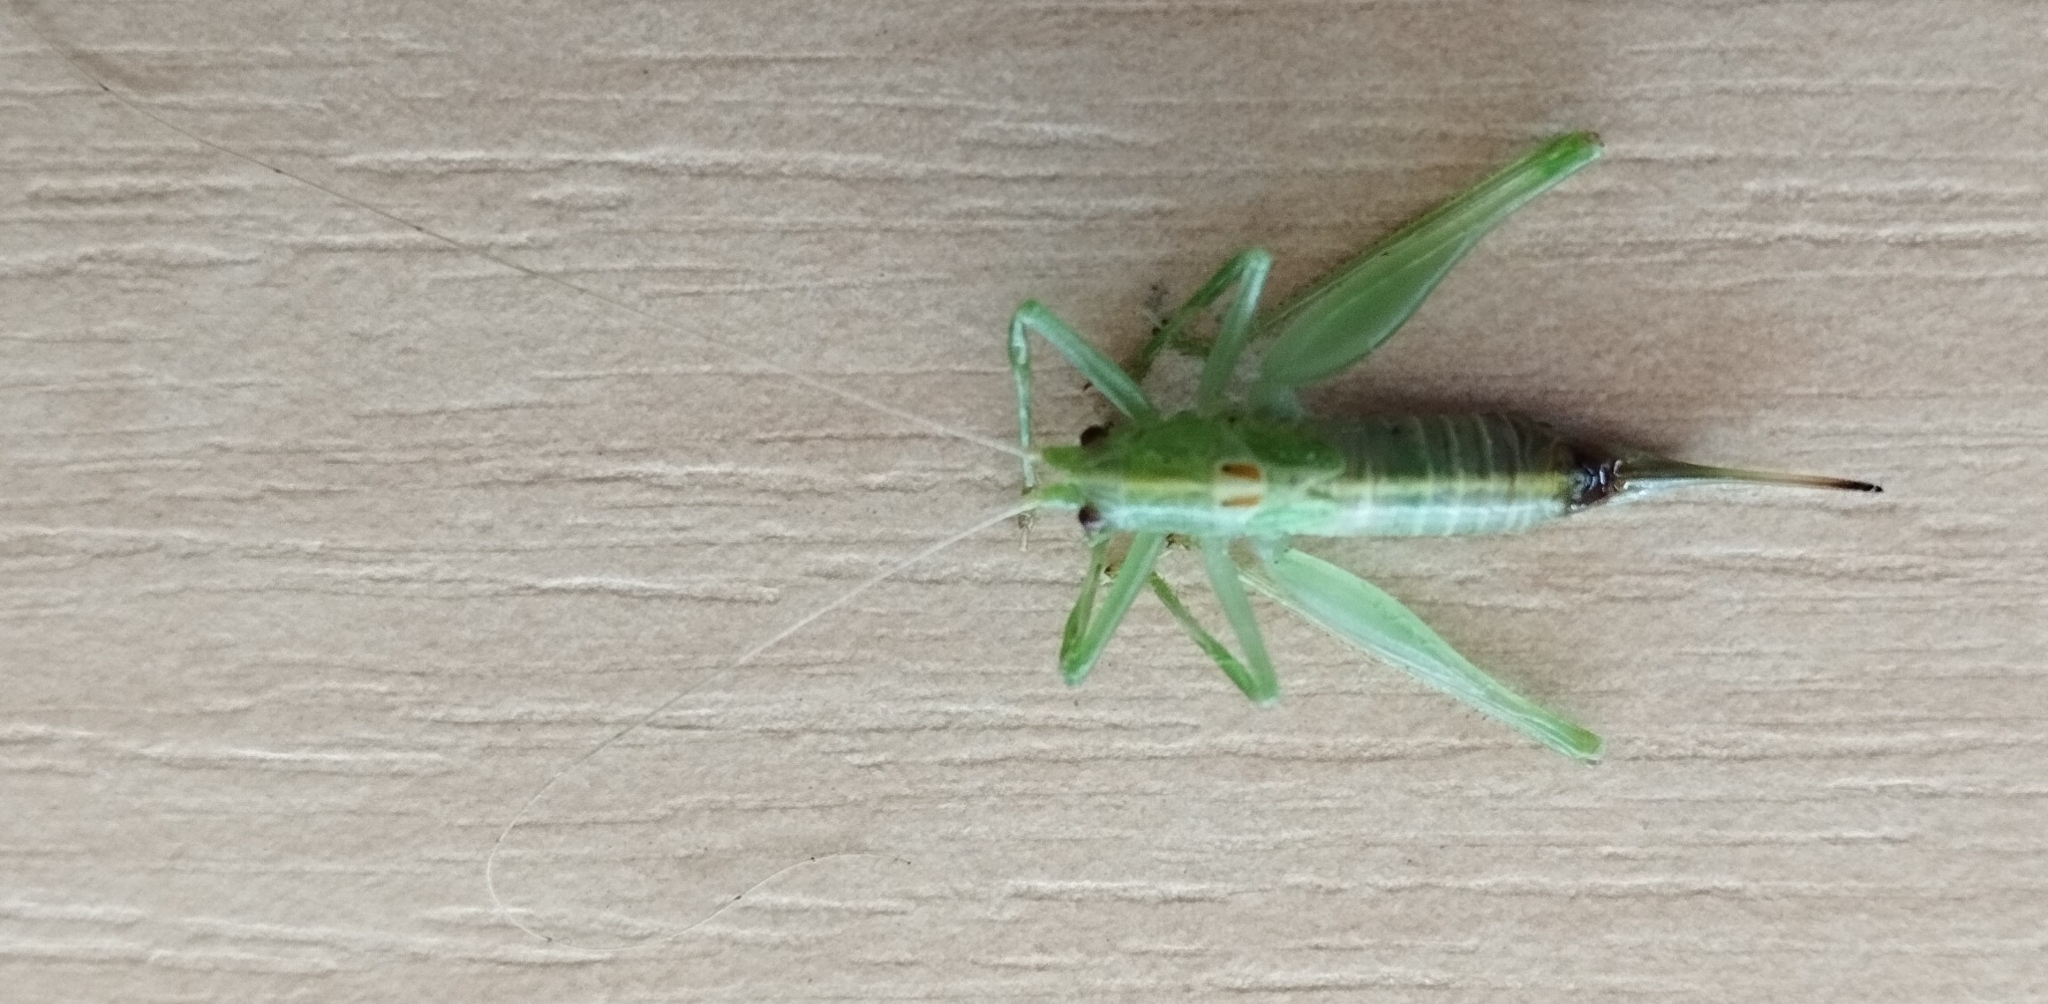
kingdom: Animalia
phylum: Arthropoda
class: Insecta
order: Orthoptera
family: Tettigoniidae
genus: Meconema
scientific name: Meconema meridionale
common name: Southern oak bush-cricket
